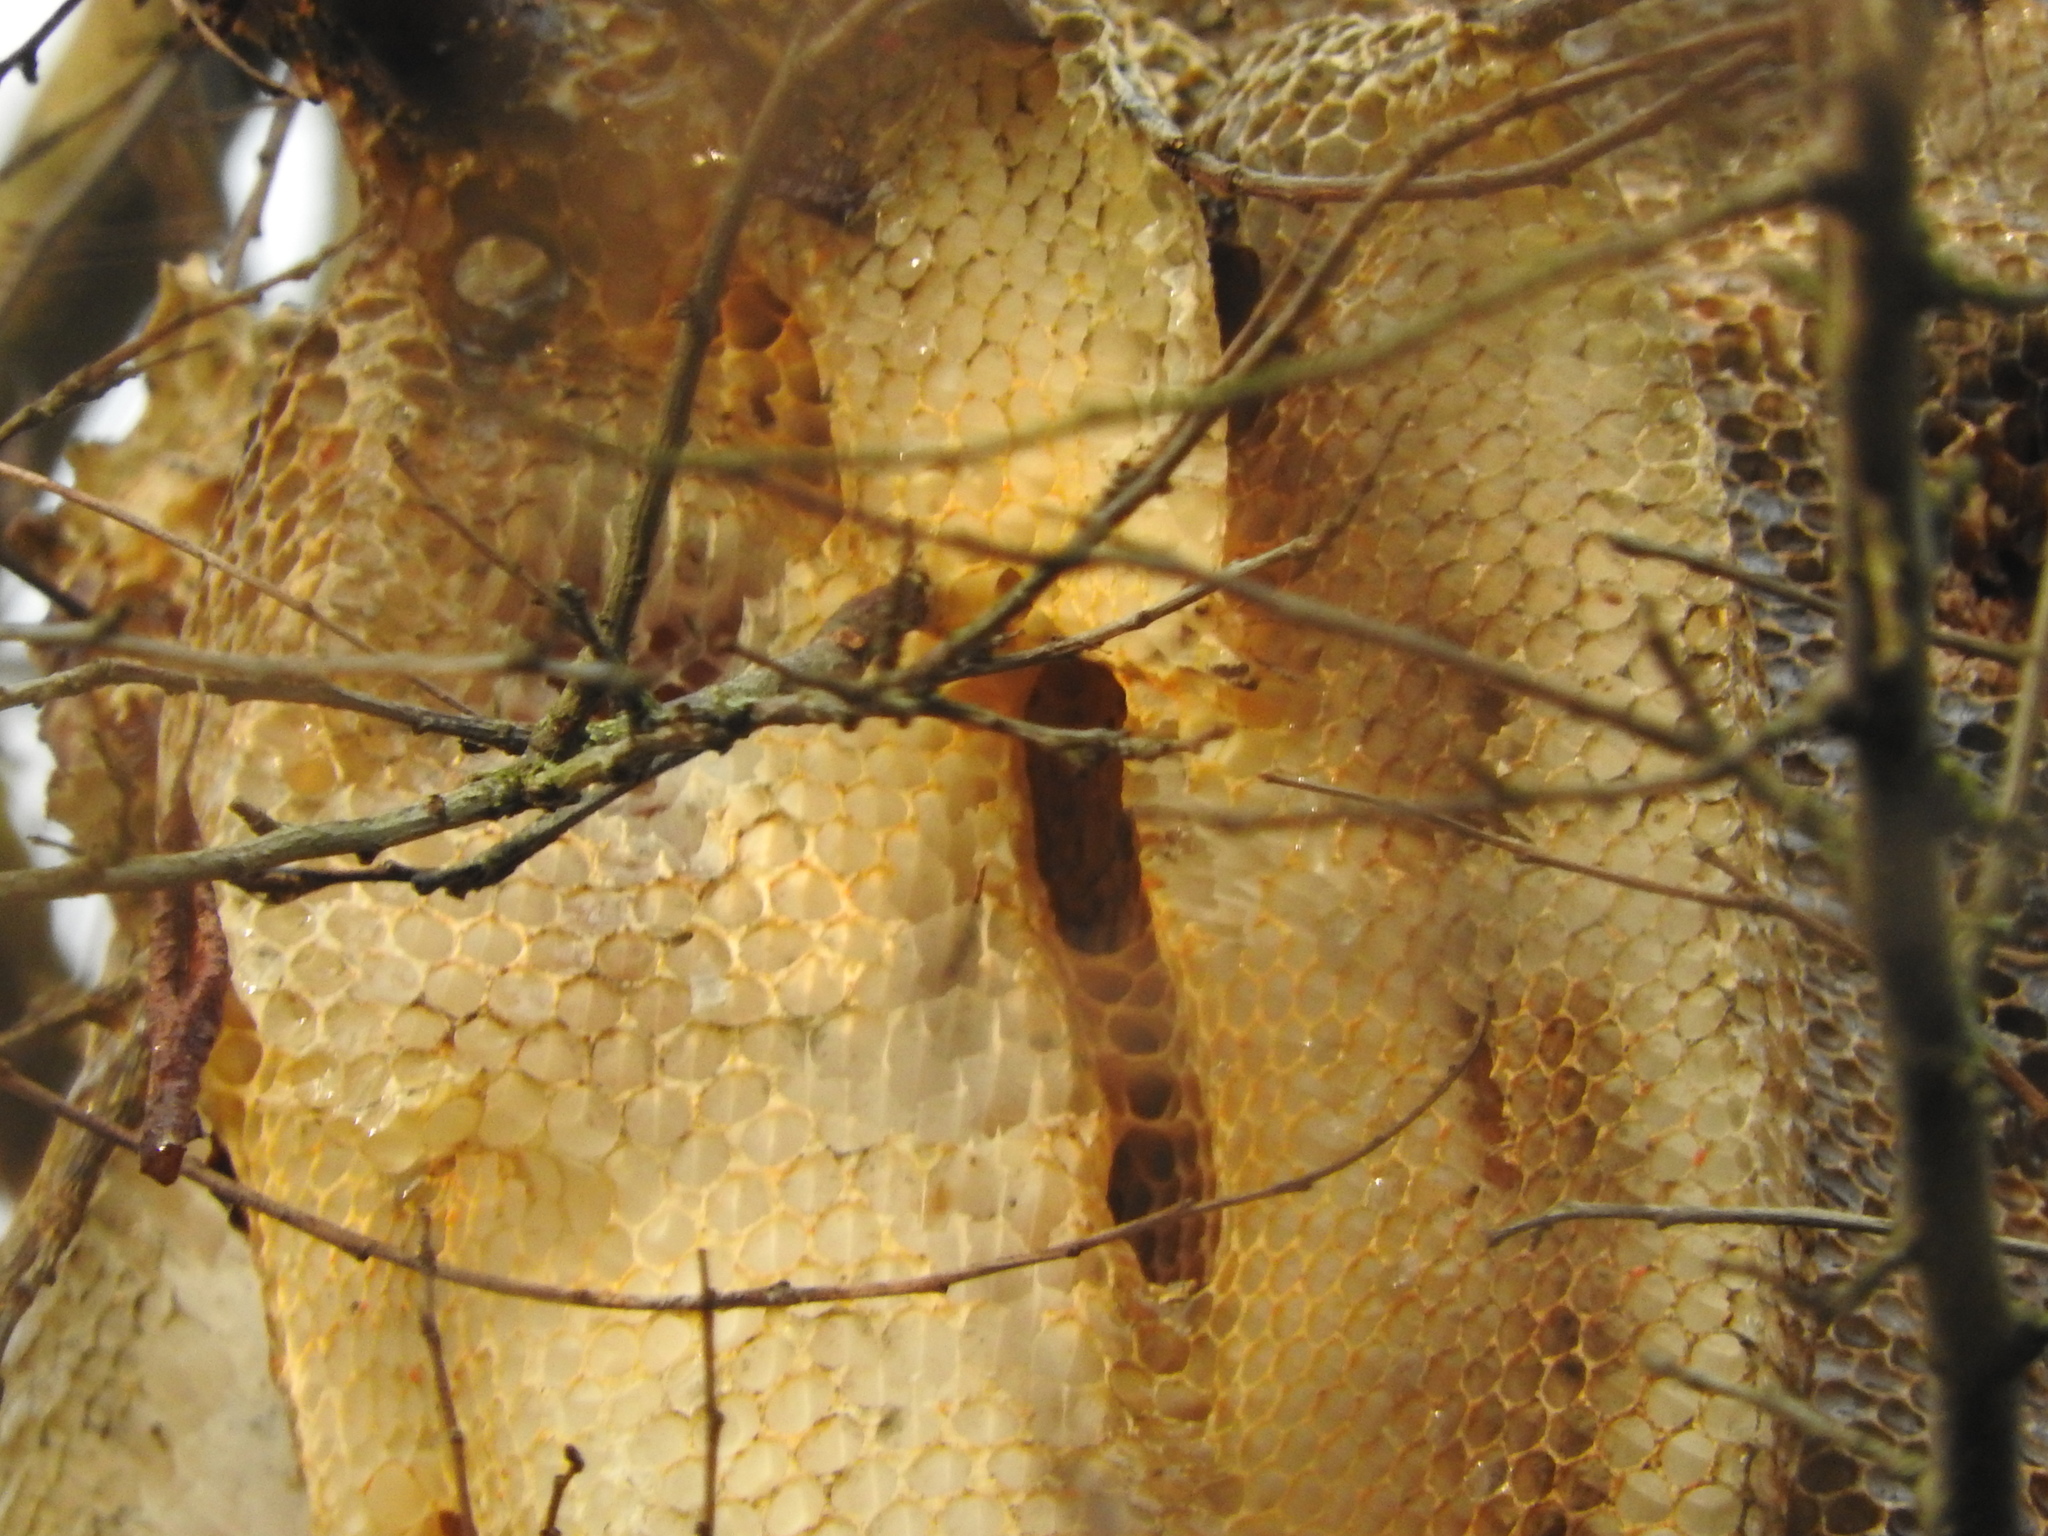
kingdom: Animalia
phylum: Arthropoda
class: Insecta
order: Hymenoptera
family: Apidae
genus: Apis
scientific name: Apis mellifera
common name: Honey bee
